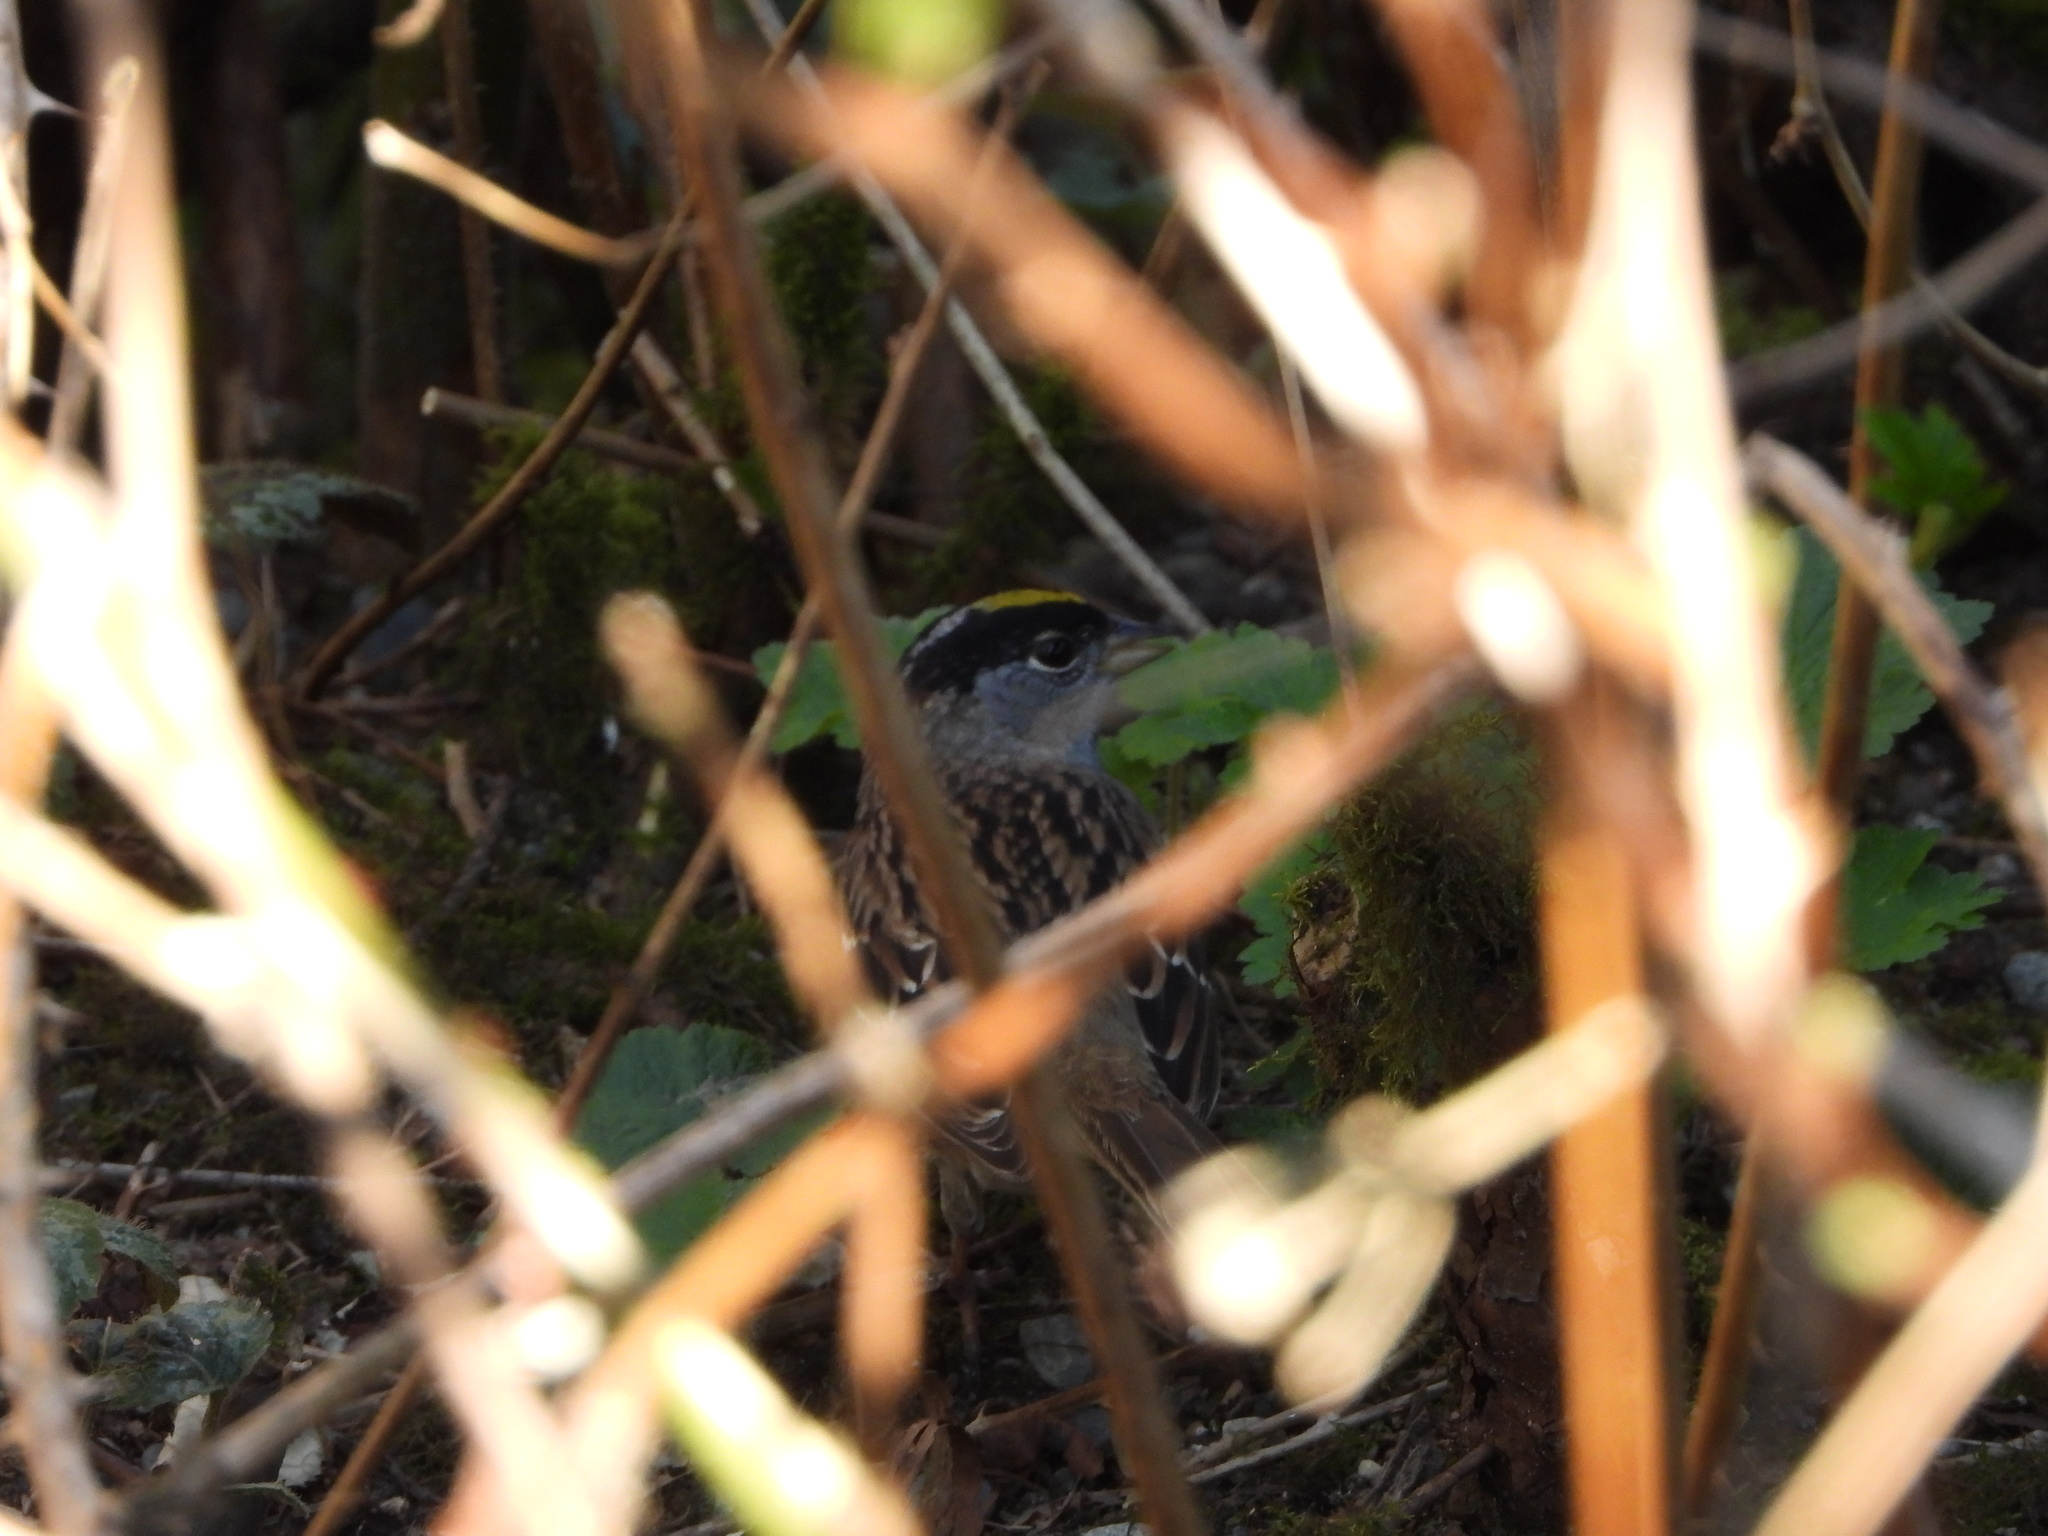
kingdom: Animalia
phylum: Chordata
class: Aves
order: Passeriformes
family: Passerellidae
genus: Zonotrichia
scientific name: Zonotrichia atricapilla
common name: Golden-crowned sparrow
